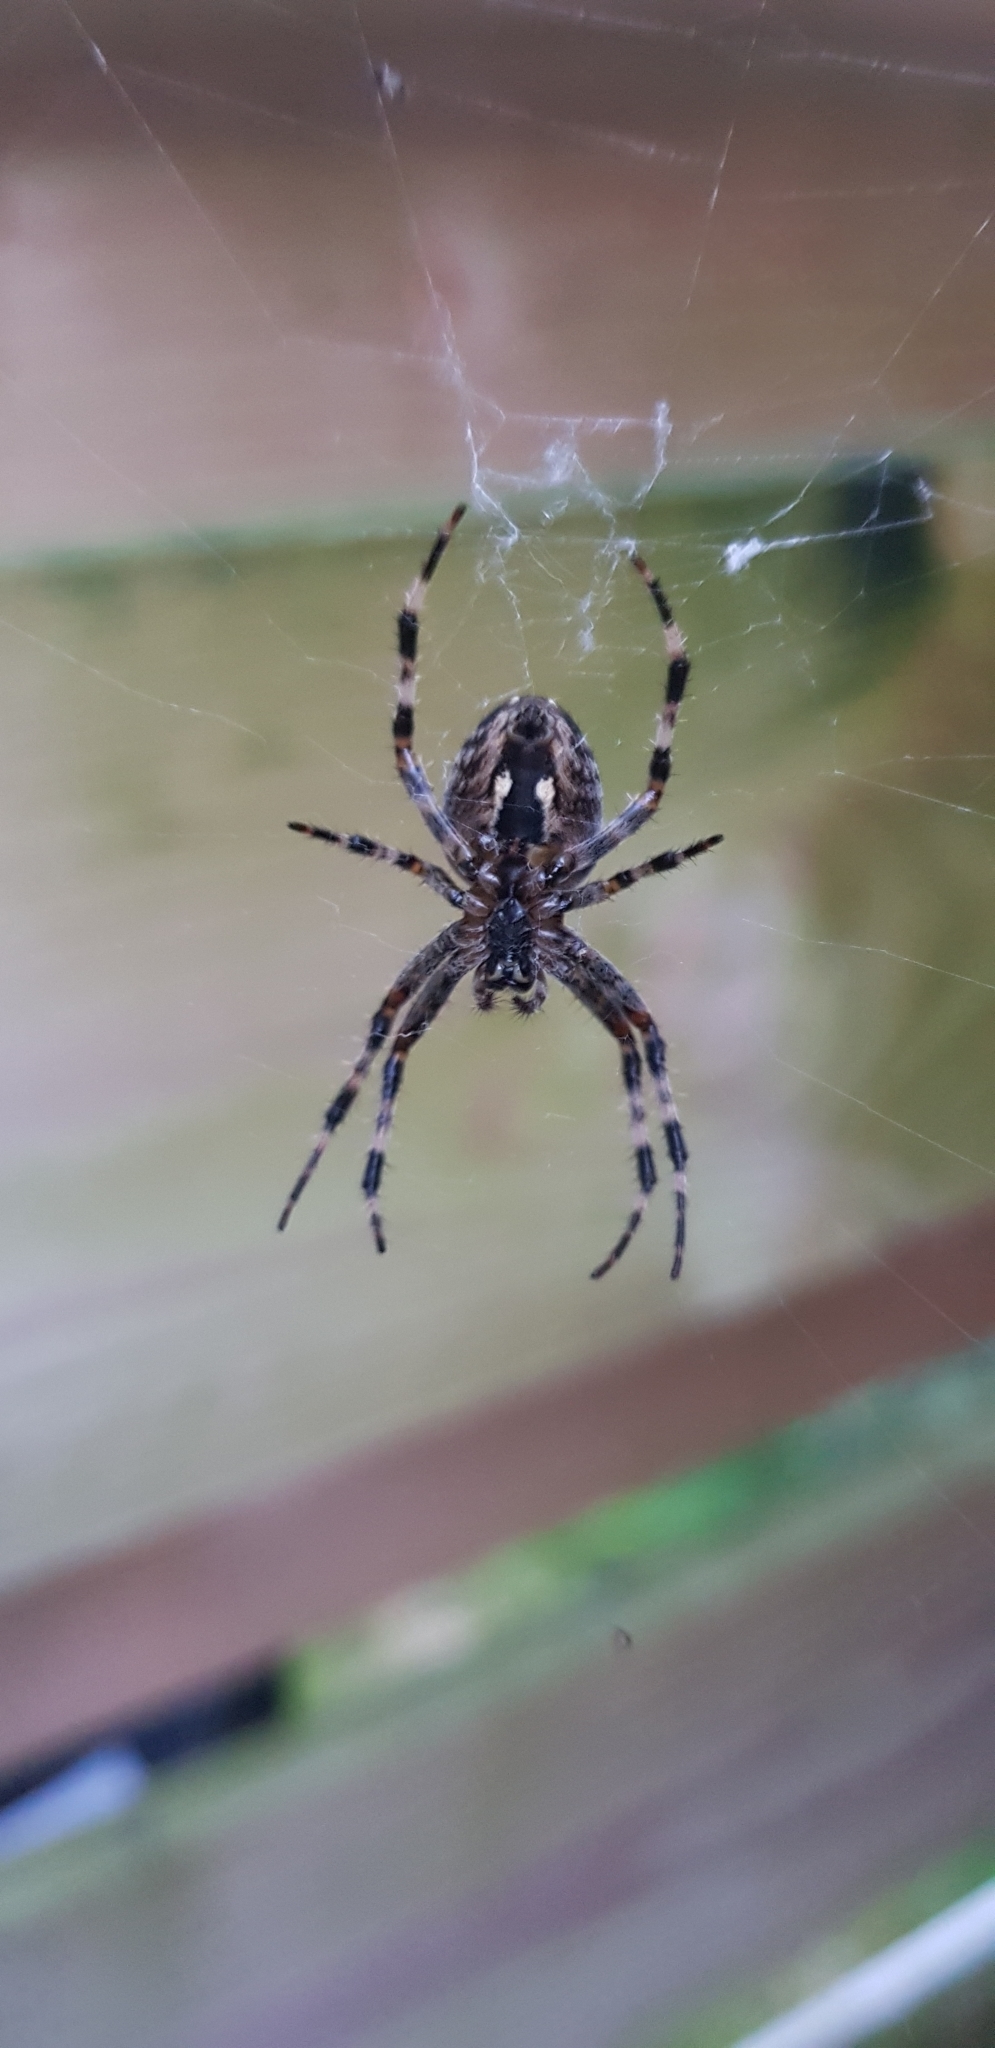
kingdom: Animalia
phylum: Arthropoda
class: Arachnida
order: Araneae
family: Araneidae
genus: Araneus
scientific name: Araneus diadematus
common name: Cross orbweaver
